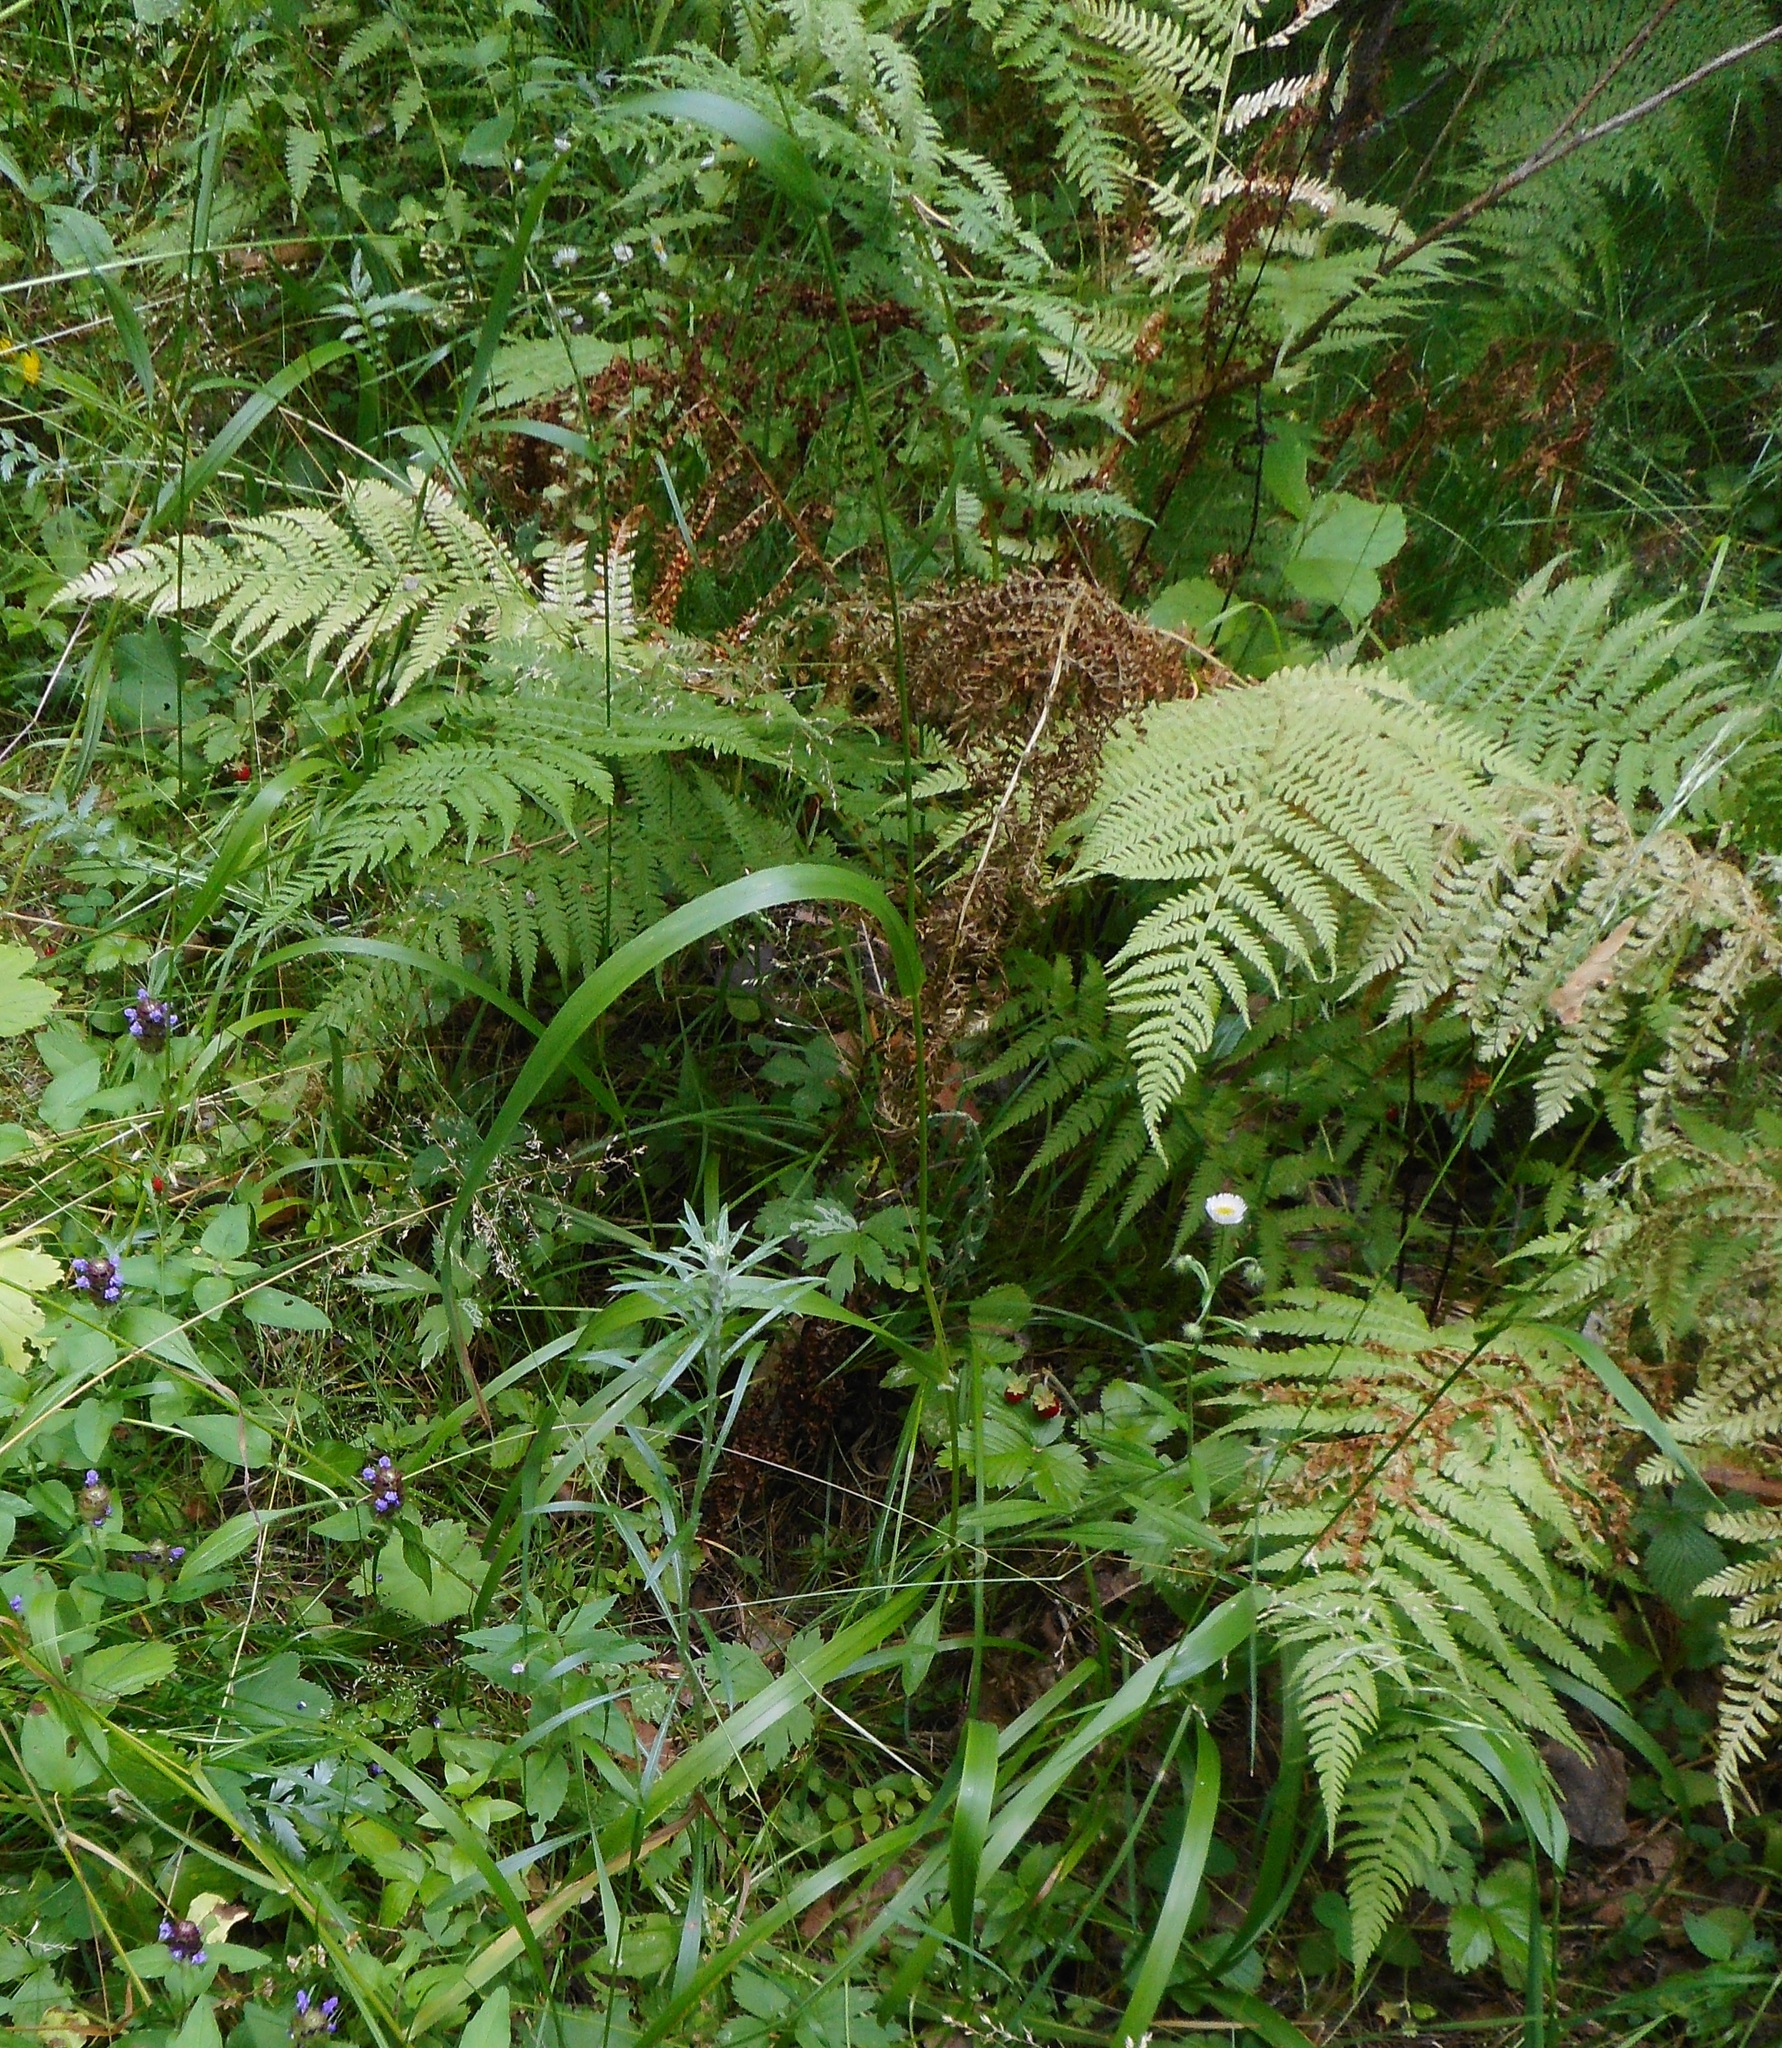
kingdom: Plantae
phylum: Tracheophyta
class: Polypodiopsida
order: Polypodiales
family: Athyriaceae
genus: Athyrium
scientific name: Athyrium filix-femina
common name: Lady fern
